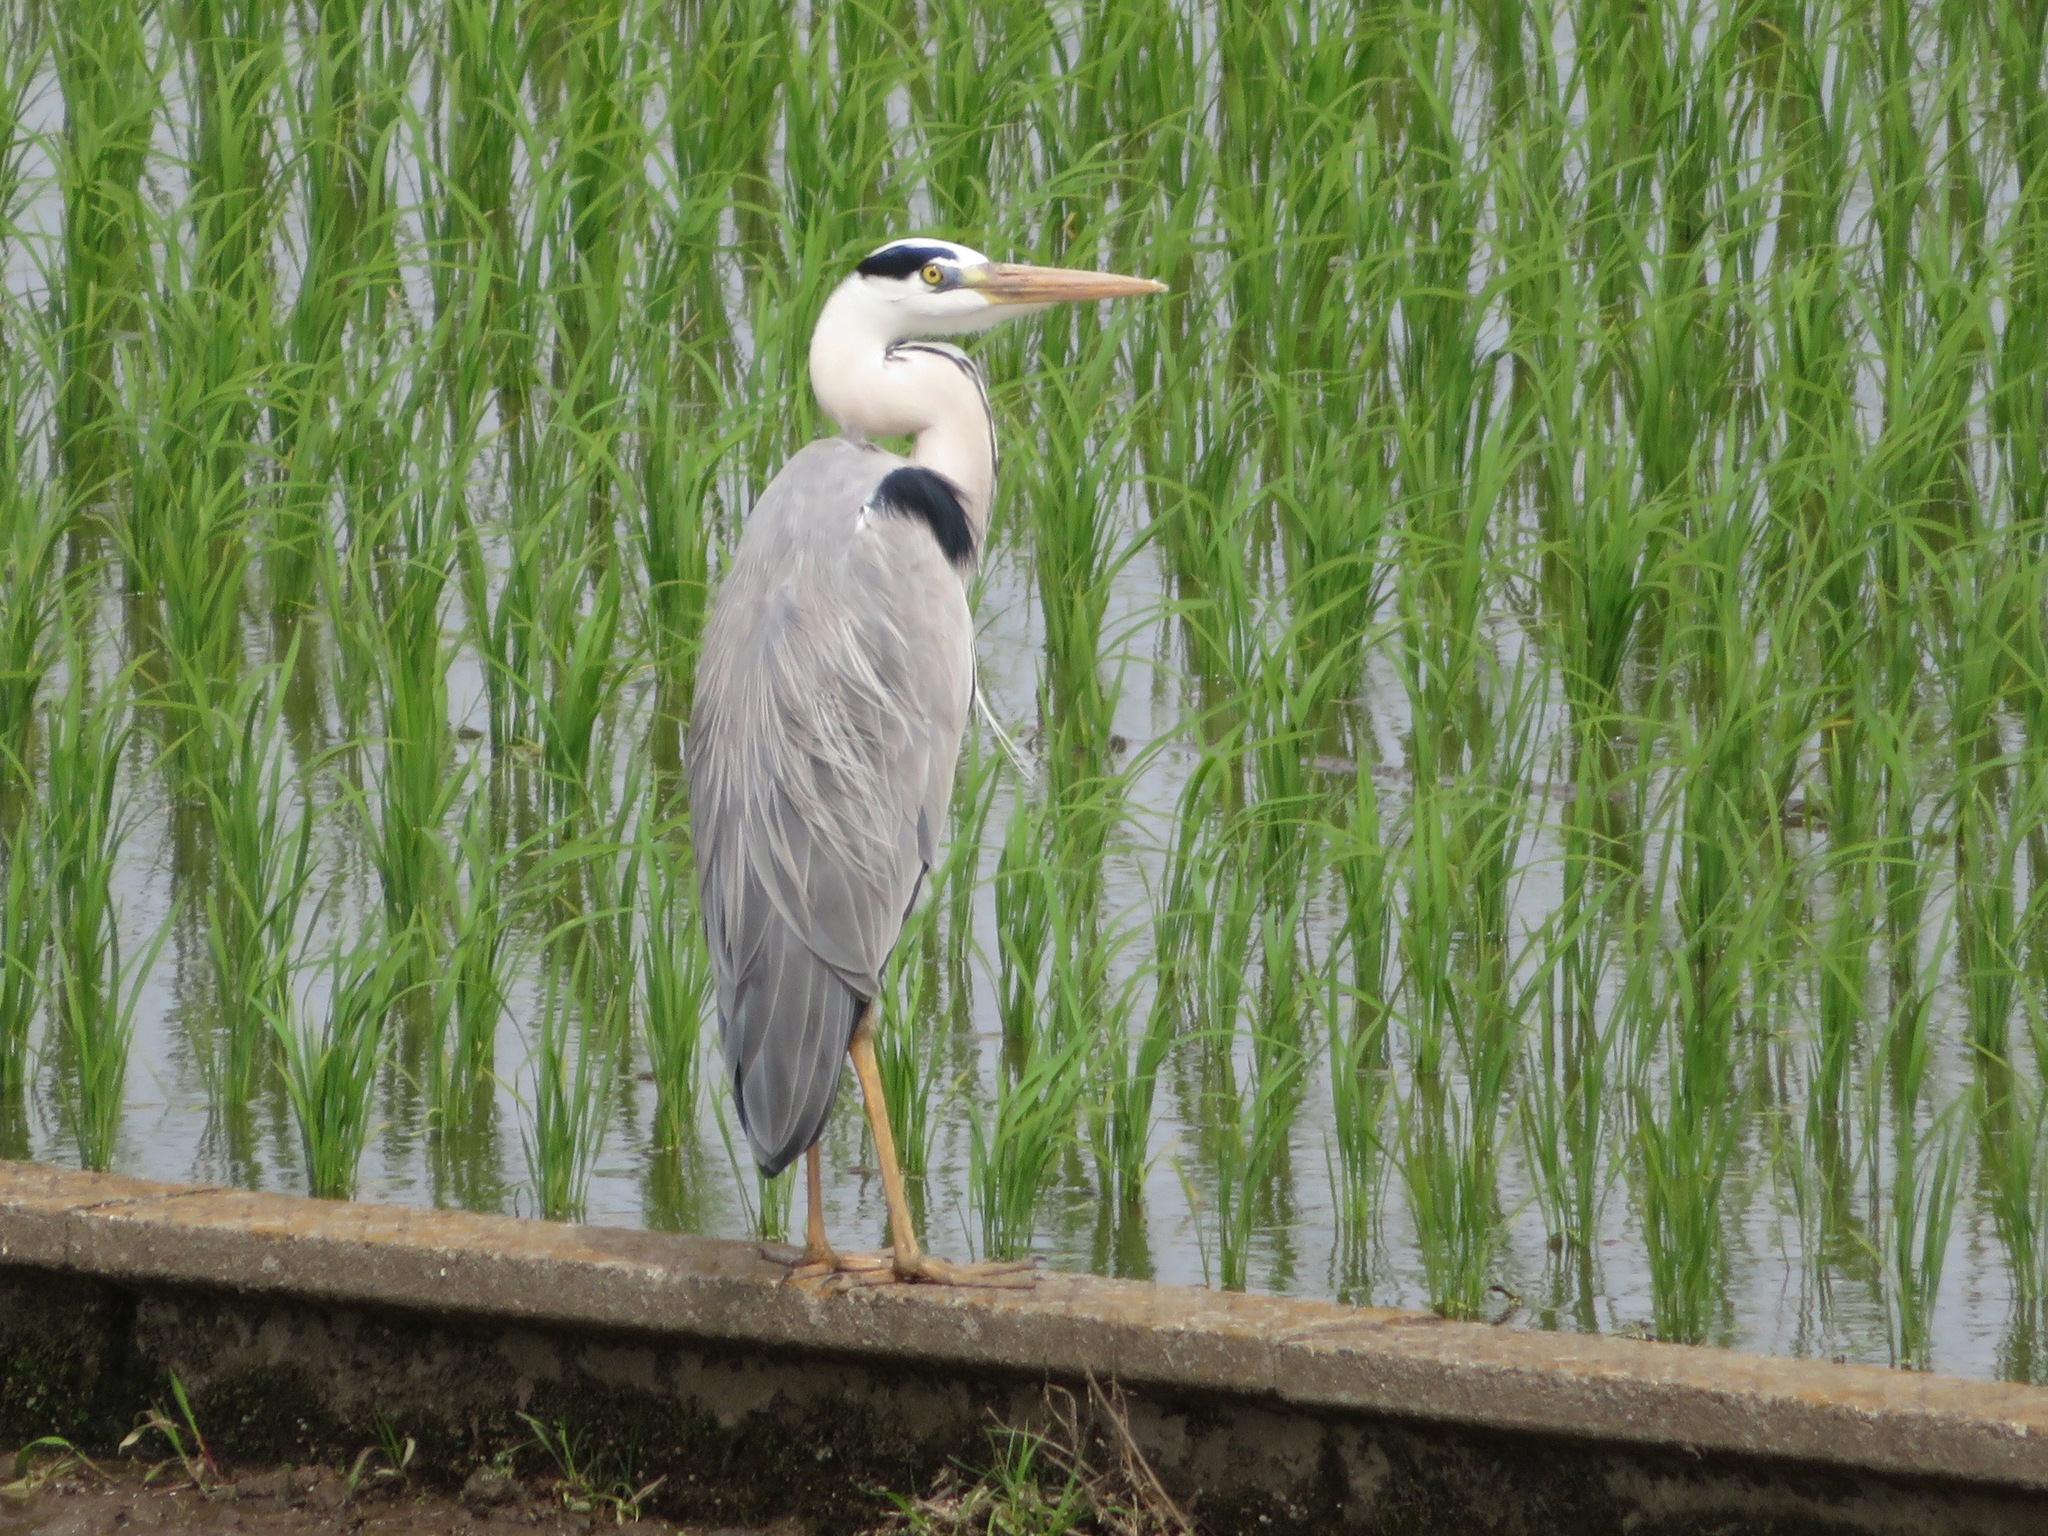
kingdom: Animalia
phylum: Chordata
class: Aves
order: Pelecaniformes
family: Ardeidae
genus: Ardea
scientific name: Ardea cinerea
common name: Grey heron
